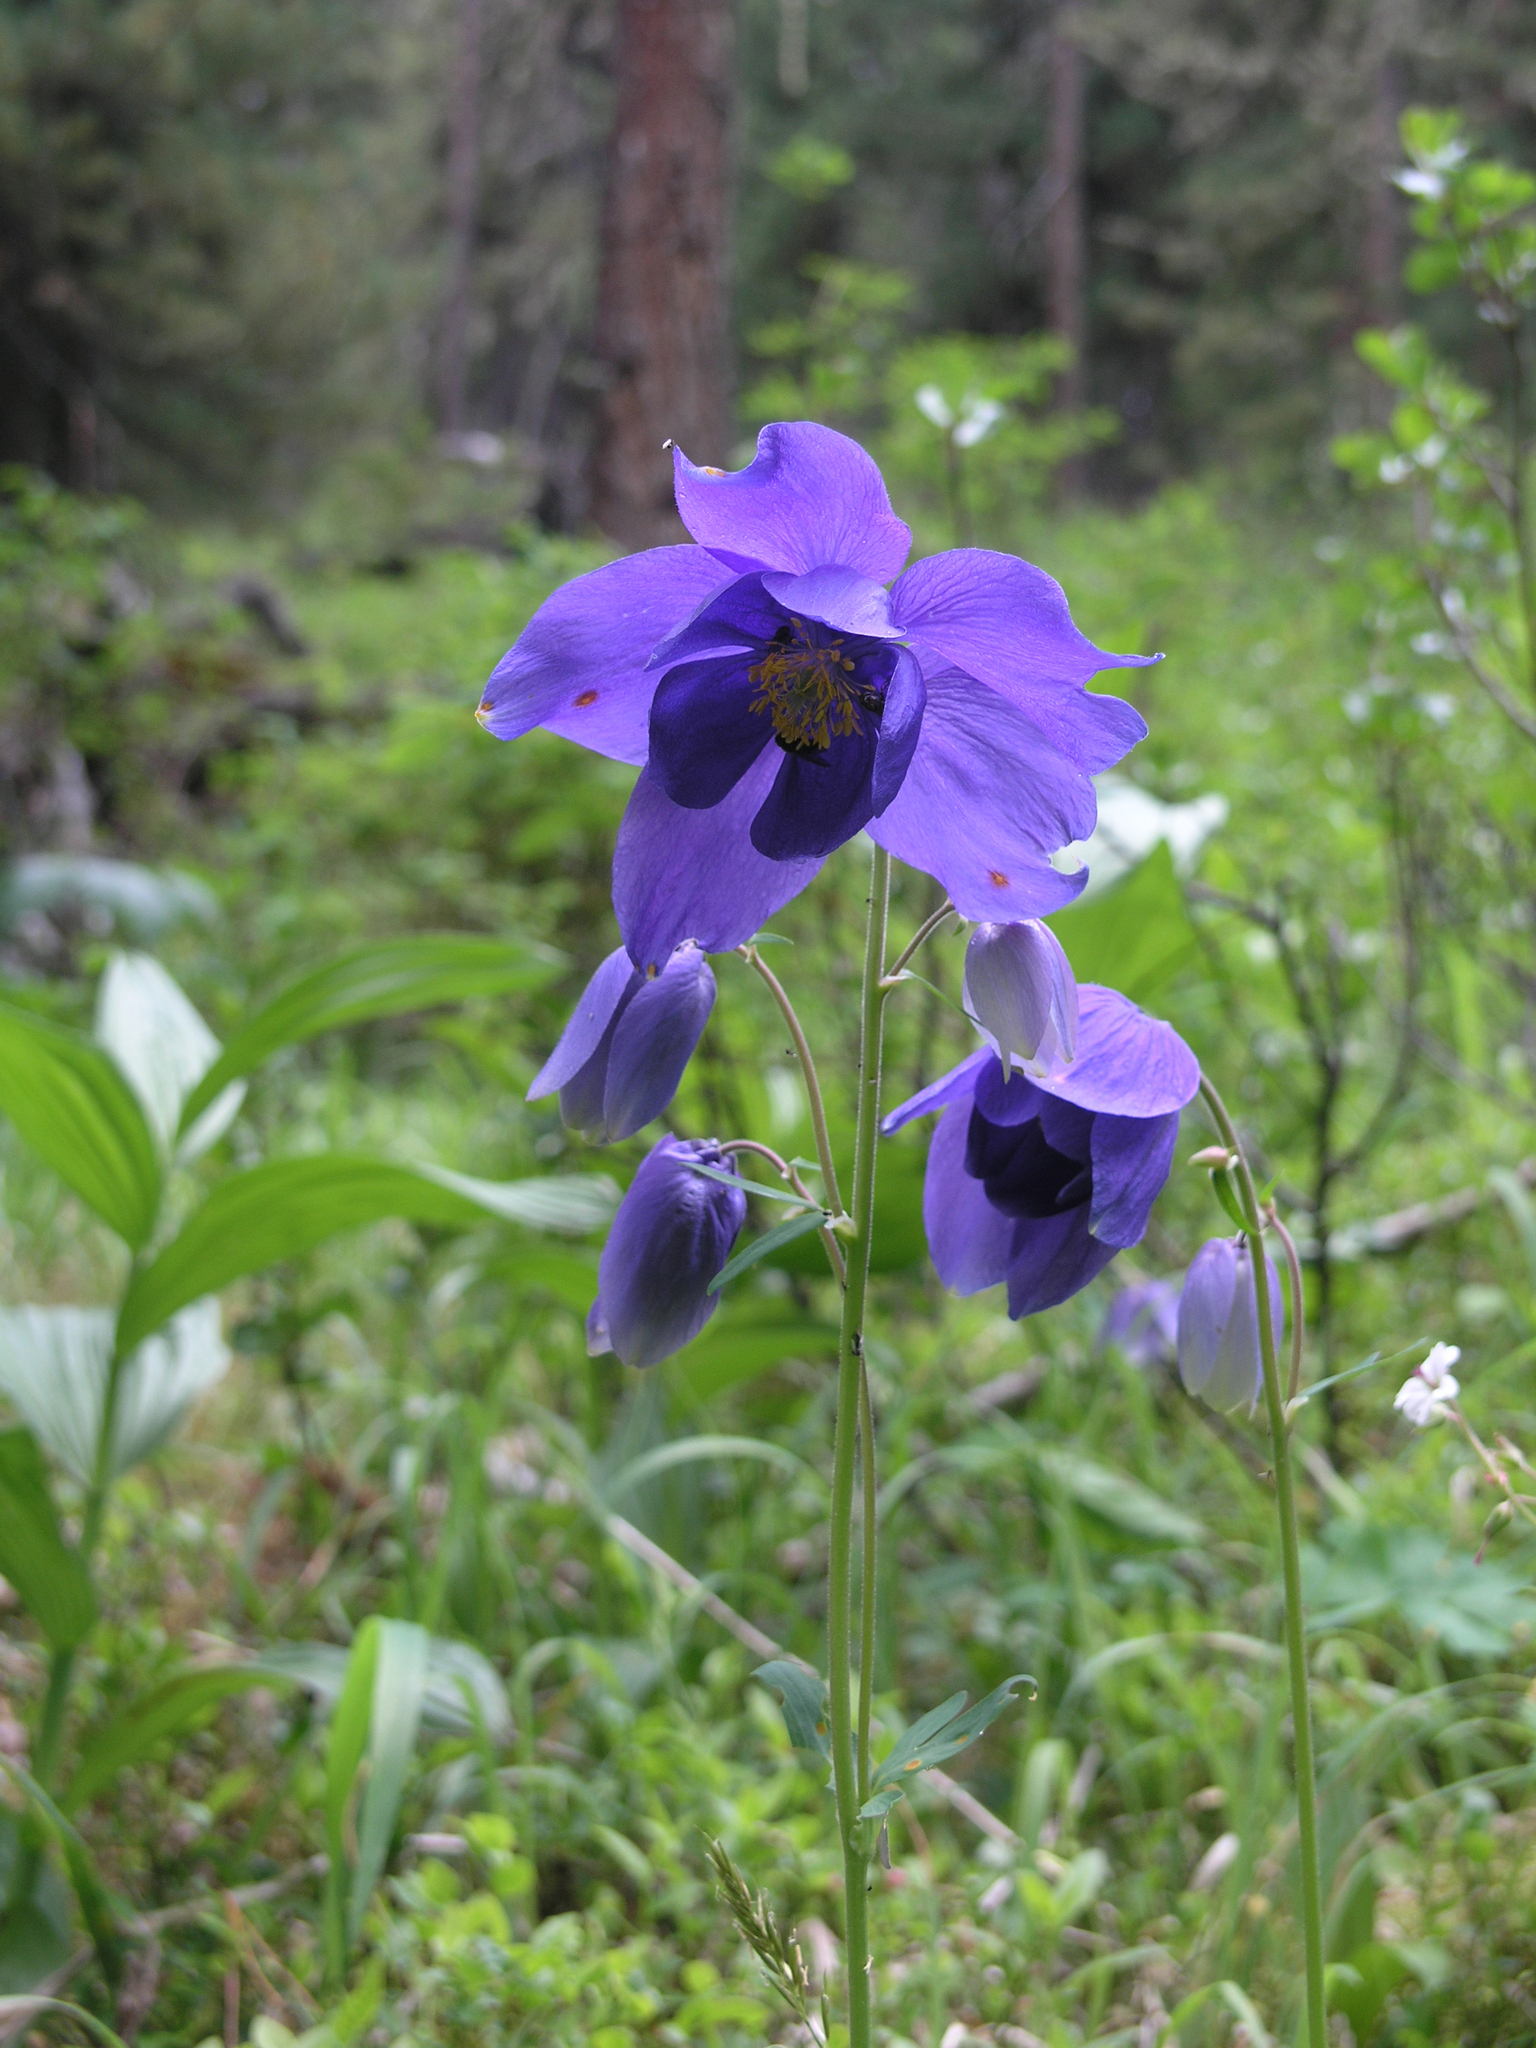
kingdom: Plantae
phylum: Tracheophyta
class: Magnoliopsida
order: Ranunculales
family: Ranunculaceae
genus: Aquilegia
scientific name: Aquilegia glandulosa
